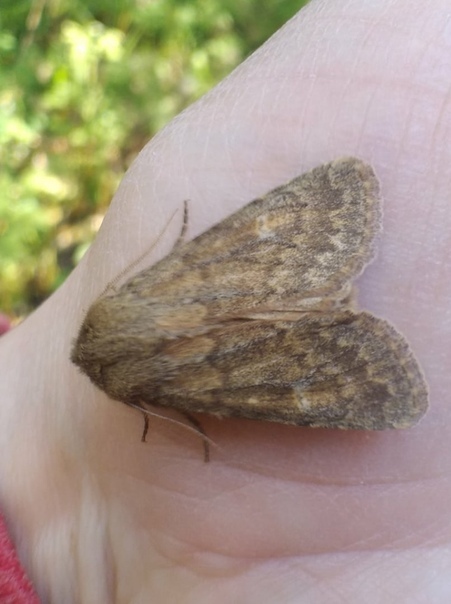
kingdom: Animalia
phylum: Arthropoda
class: Insecta
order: Lepidoptera
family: Noctuidae
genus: Dasypolia
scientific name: Dasypolia templi
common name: Brindled ochre
